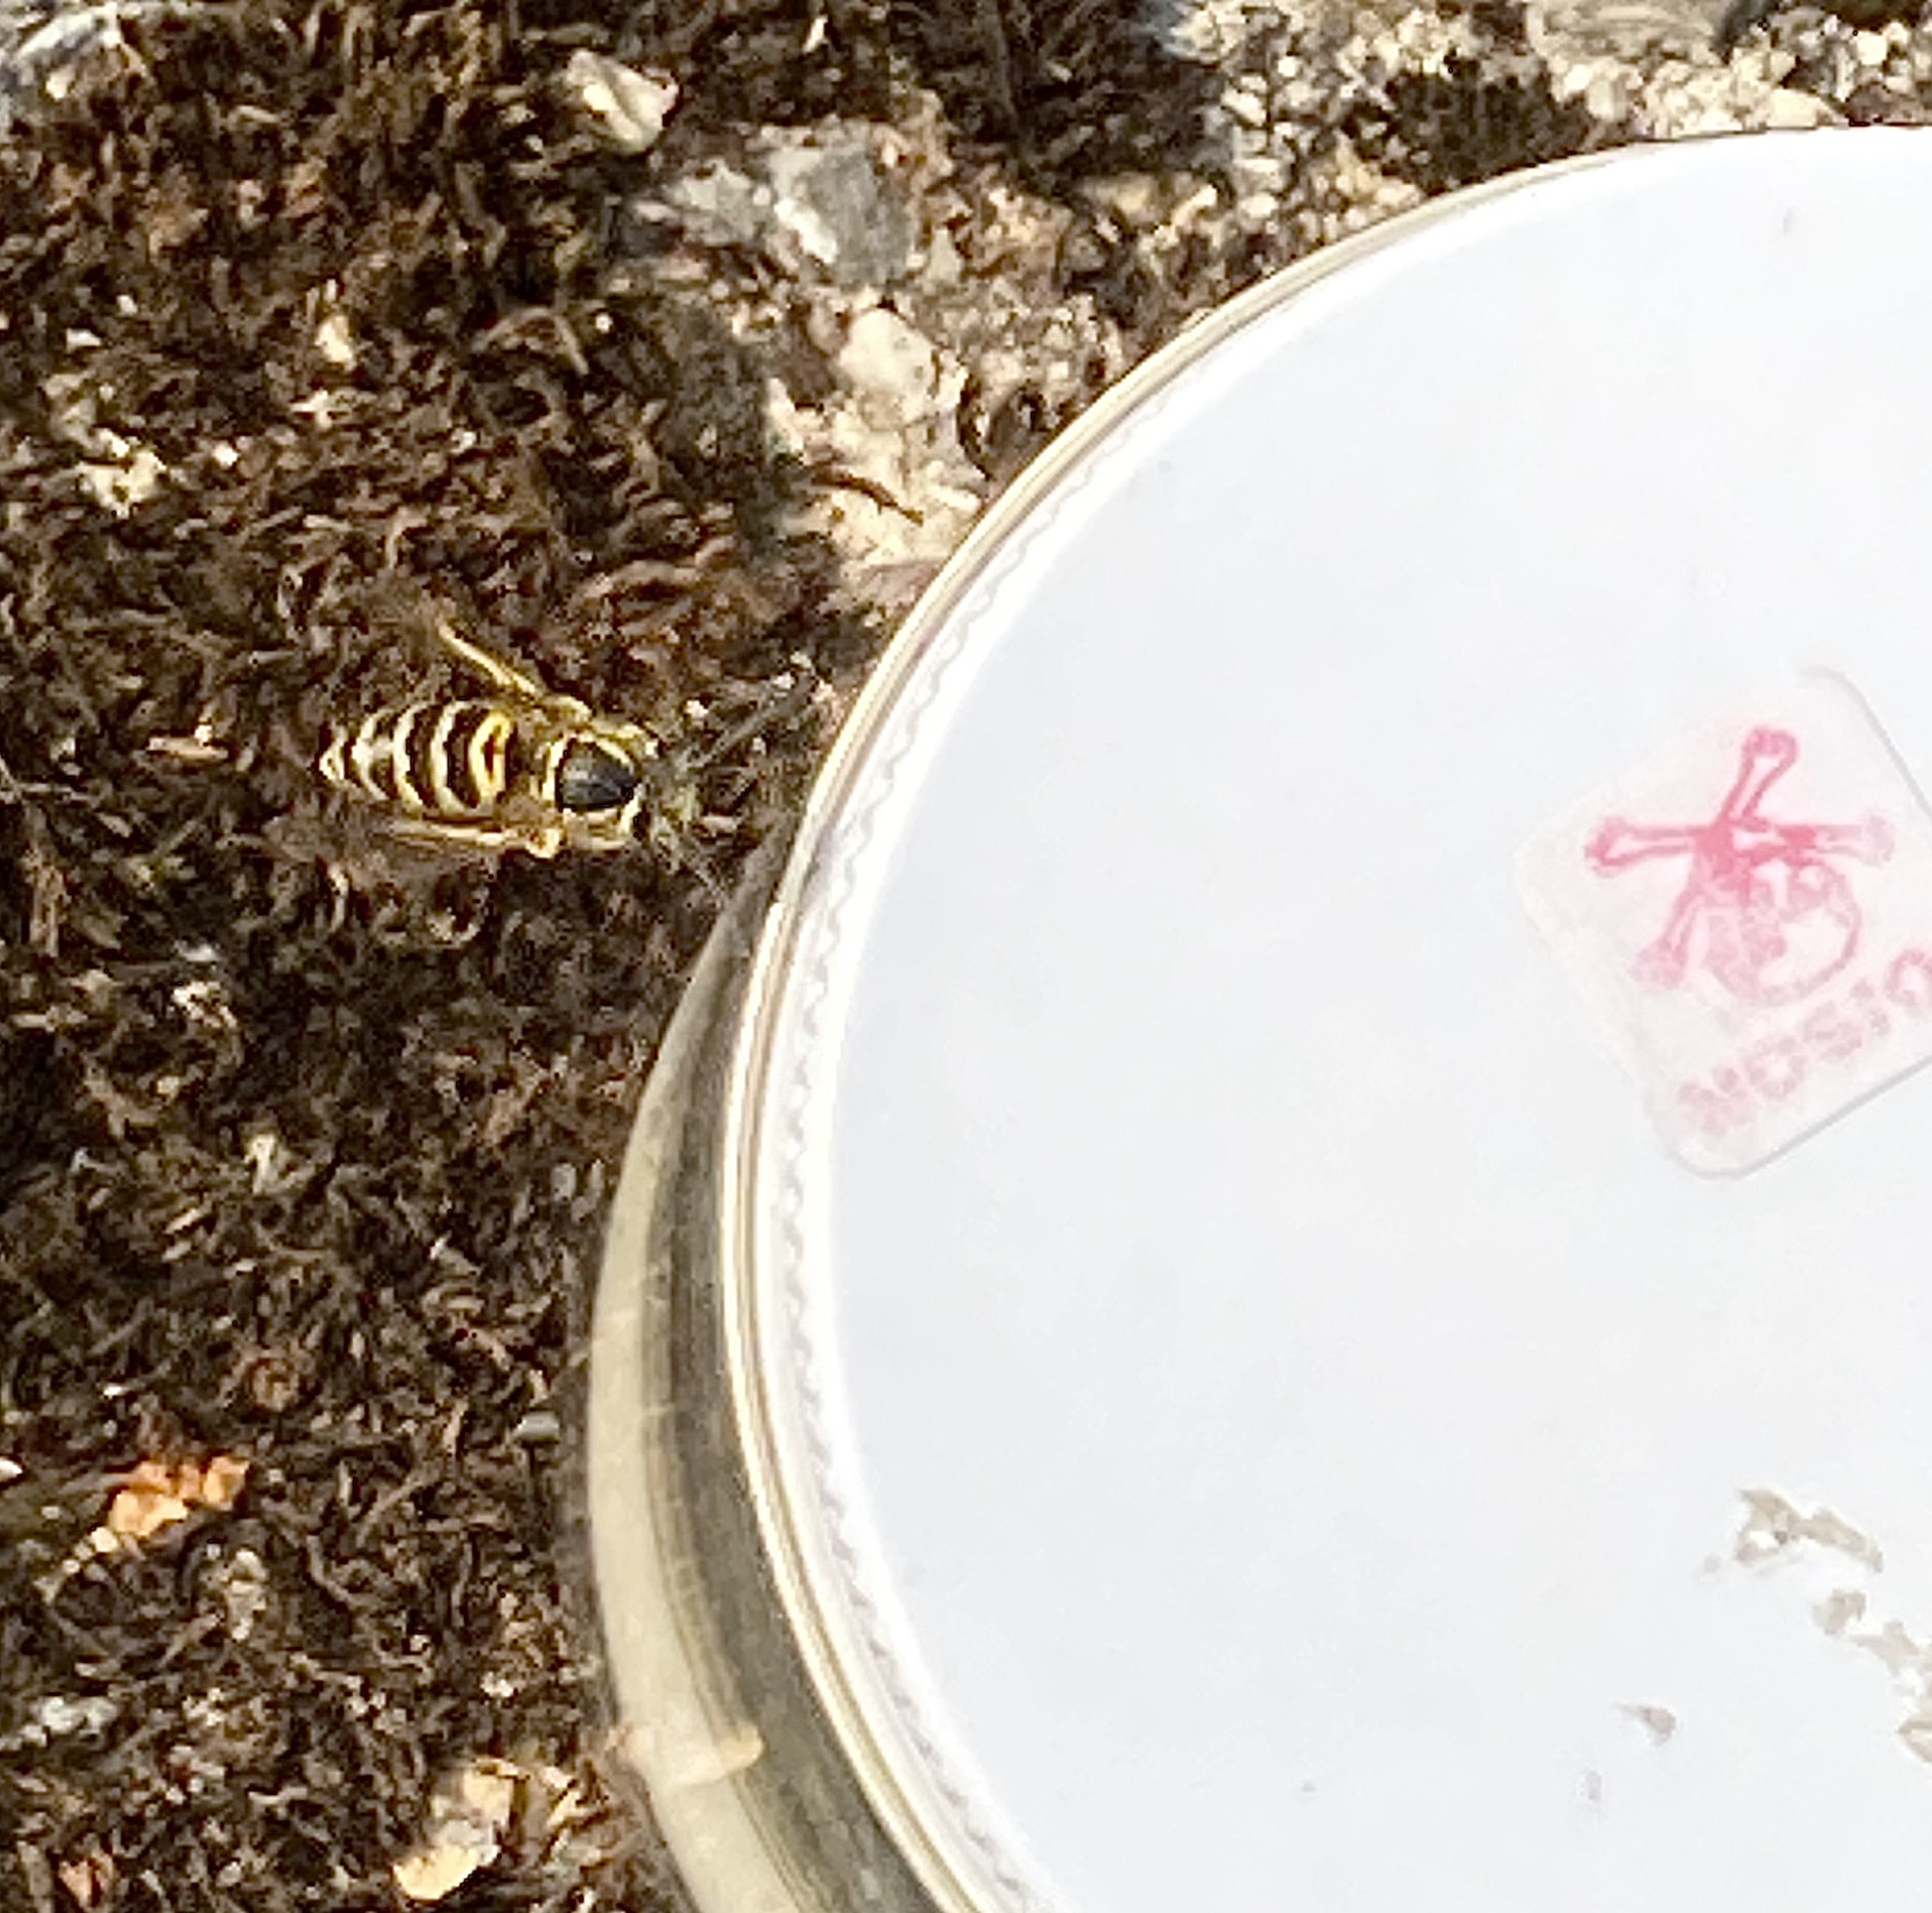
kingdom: Animalia
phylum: Arthropoda
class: Insecta
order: Hymenoptera
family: Vespidae
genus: Vespula
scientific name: Vespula maculifrons
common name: Eastern yellowjacket
